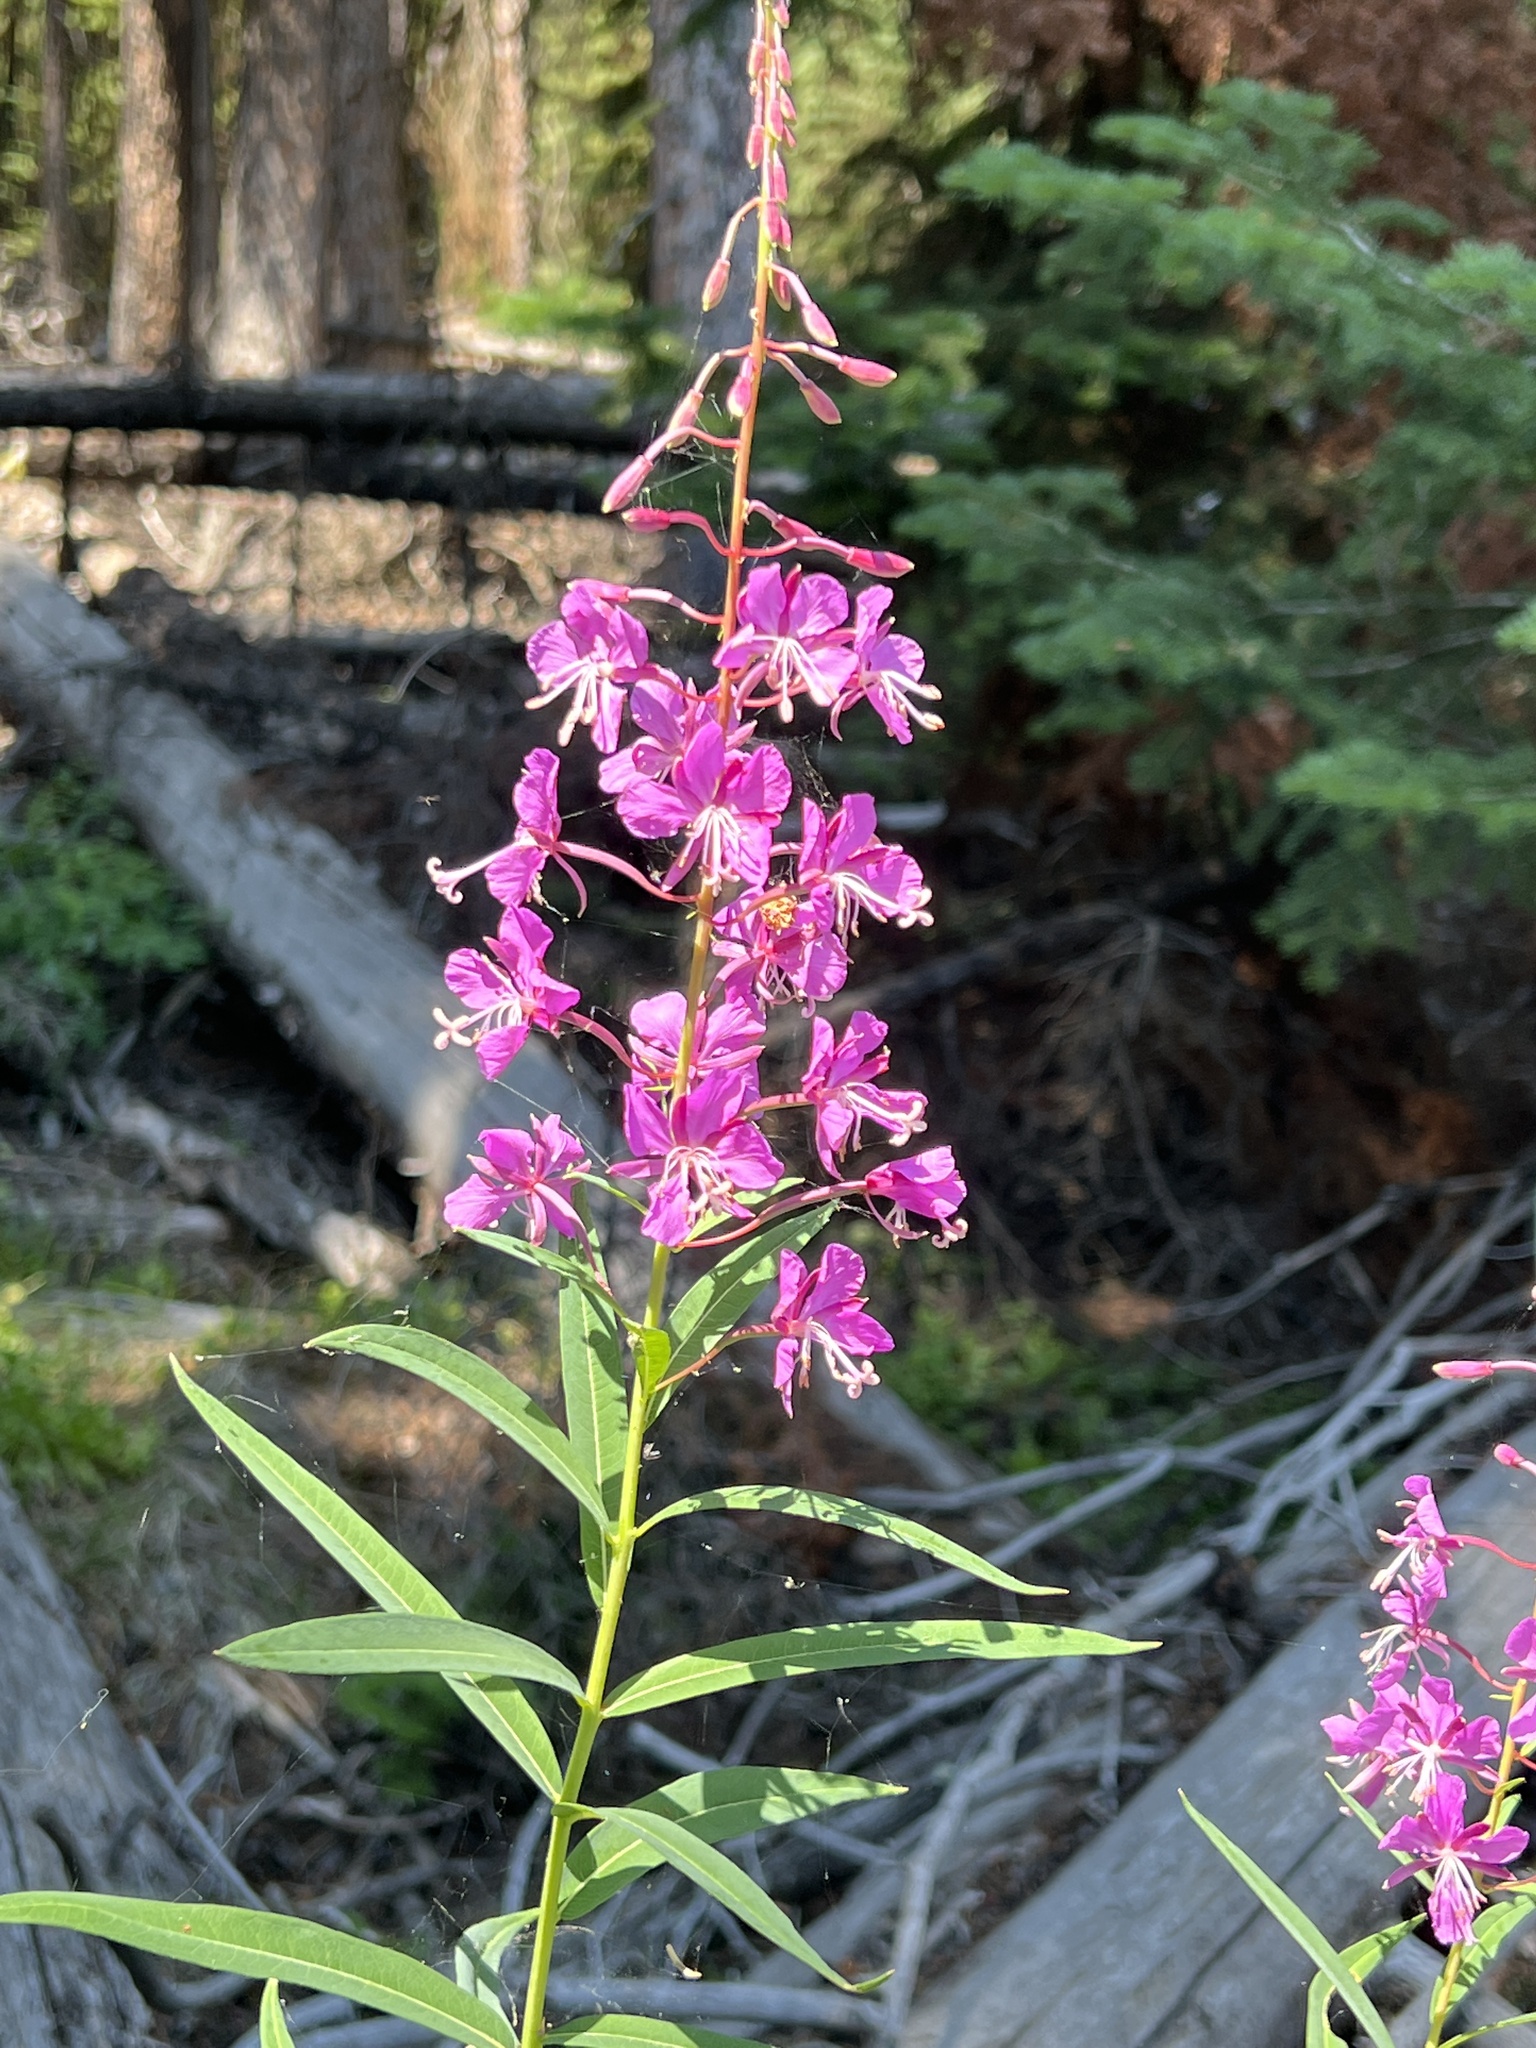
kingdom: Plantae
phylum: Tracheophyta
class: Magnoliopsida
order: Myrtales
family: Onagraceae
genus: Chamaenerion
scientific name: Chamaenerion angustifolium
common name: Fireweed
